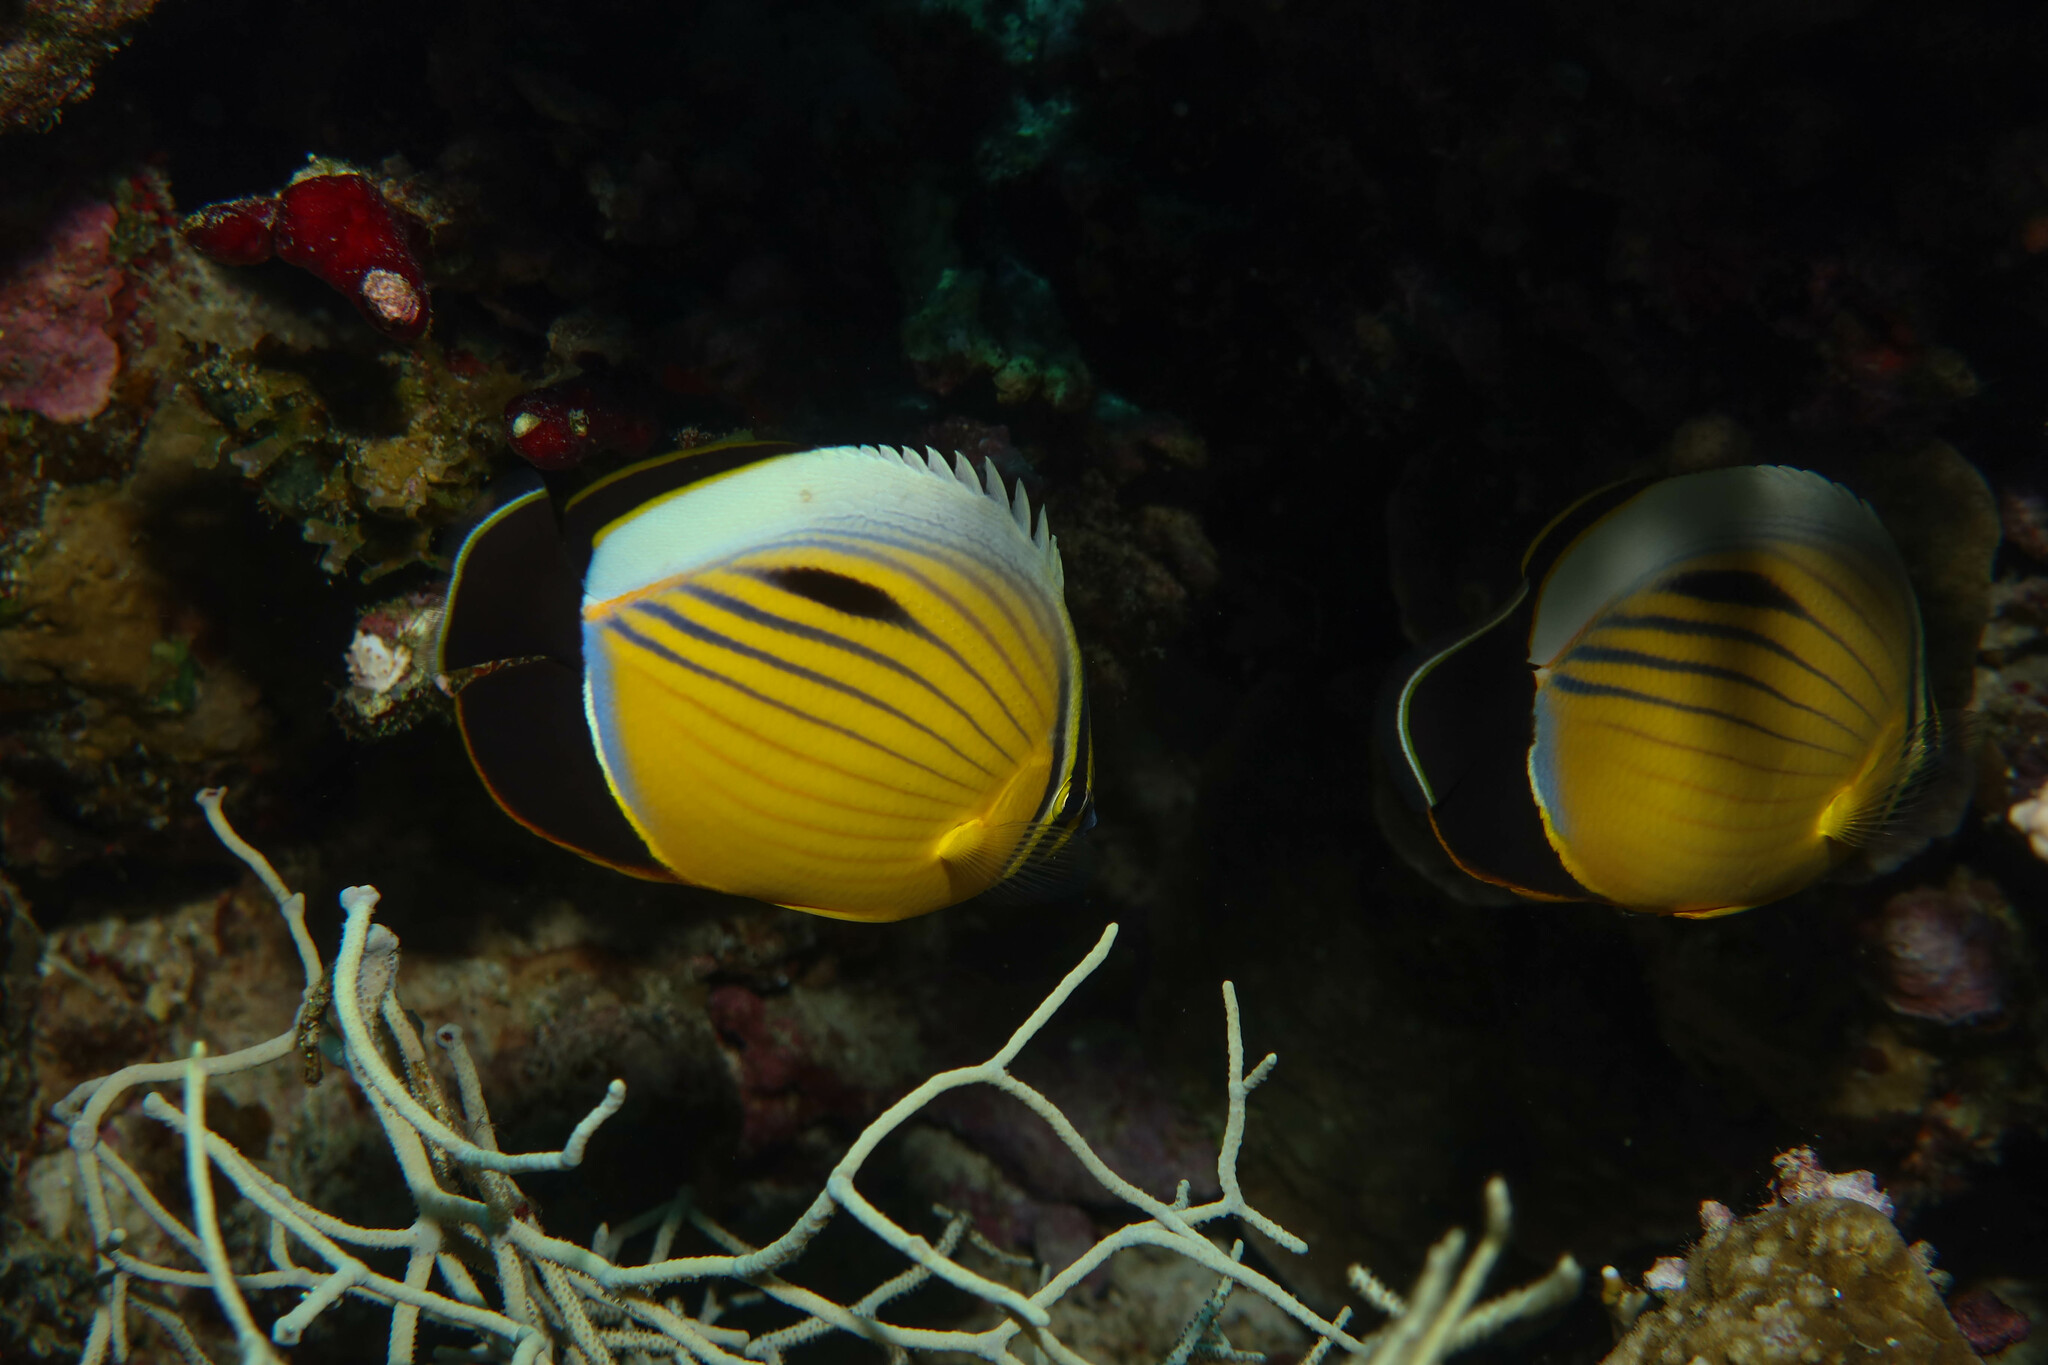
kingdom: Animalia
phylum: Chordata
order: Perciformes
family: Chaetodontidae
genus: Chaetodon
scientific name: Chaetodon austriacus
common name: Exquisite butterflyfish
